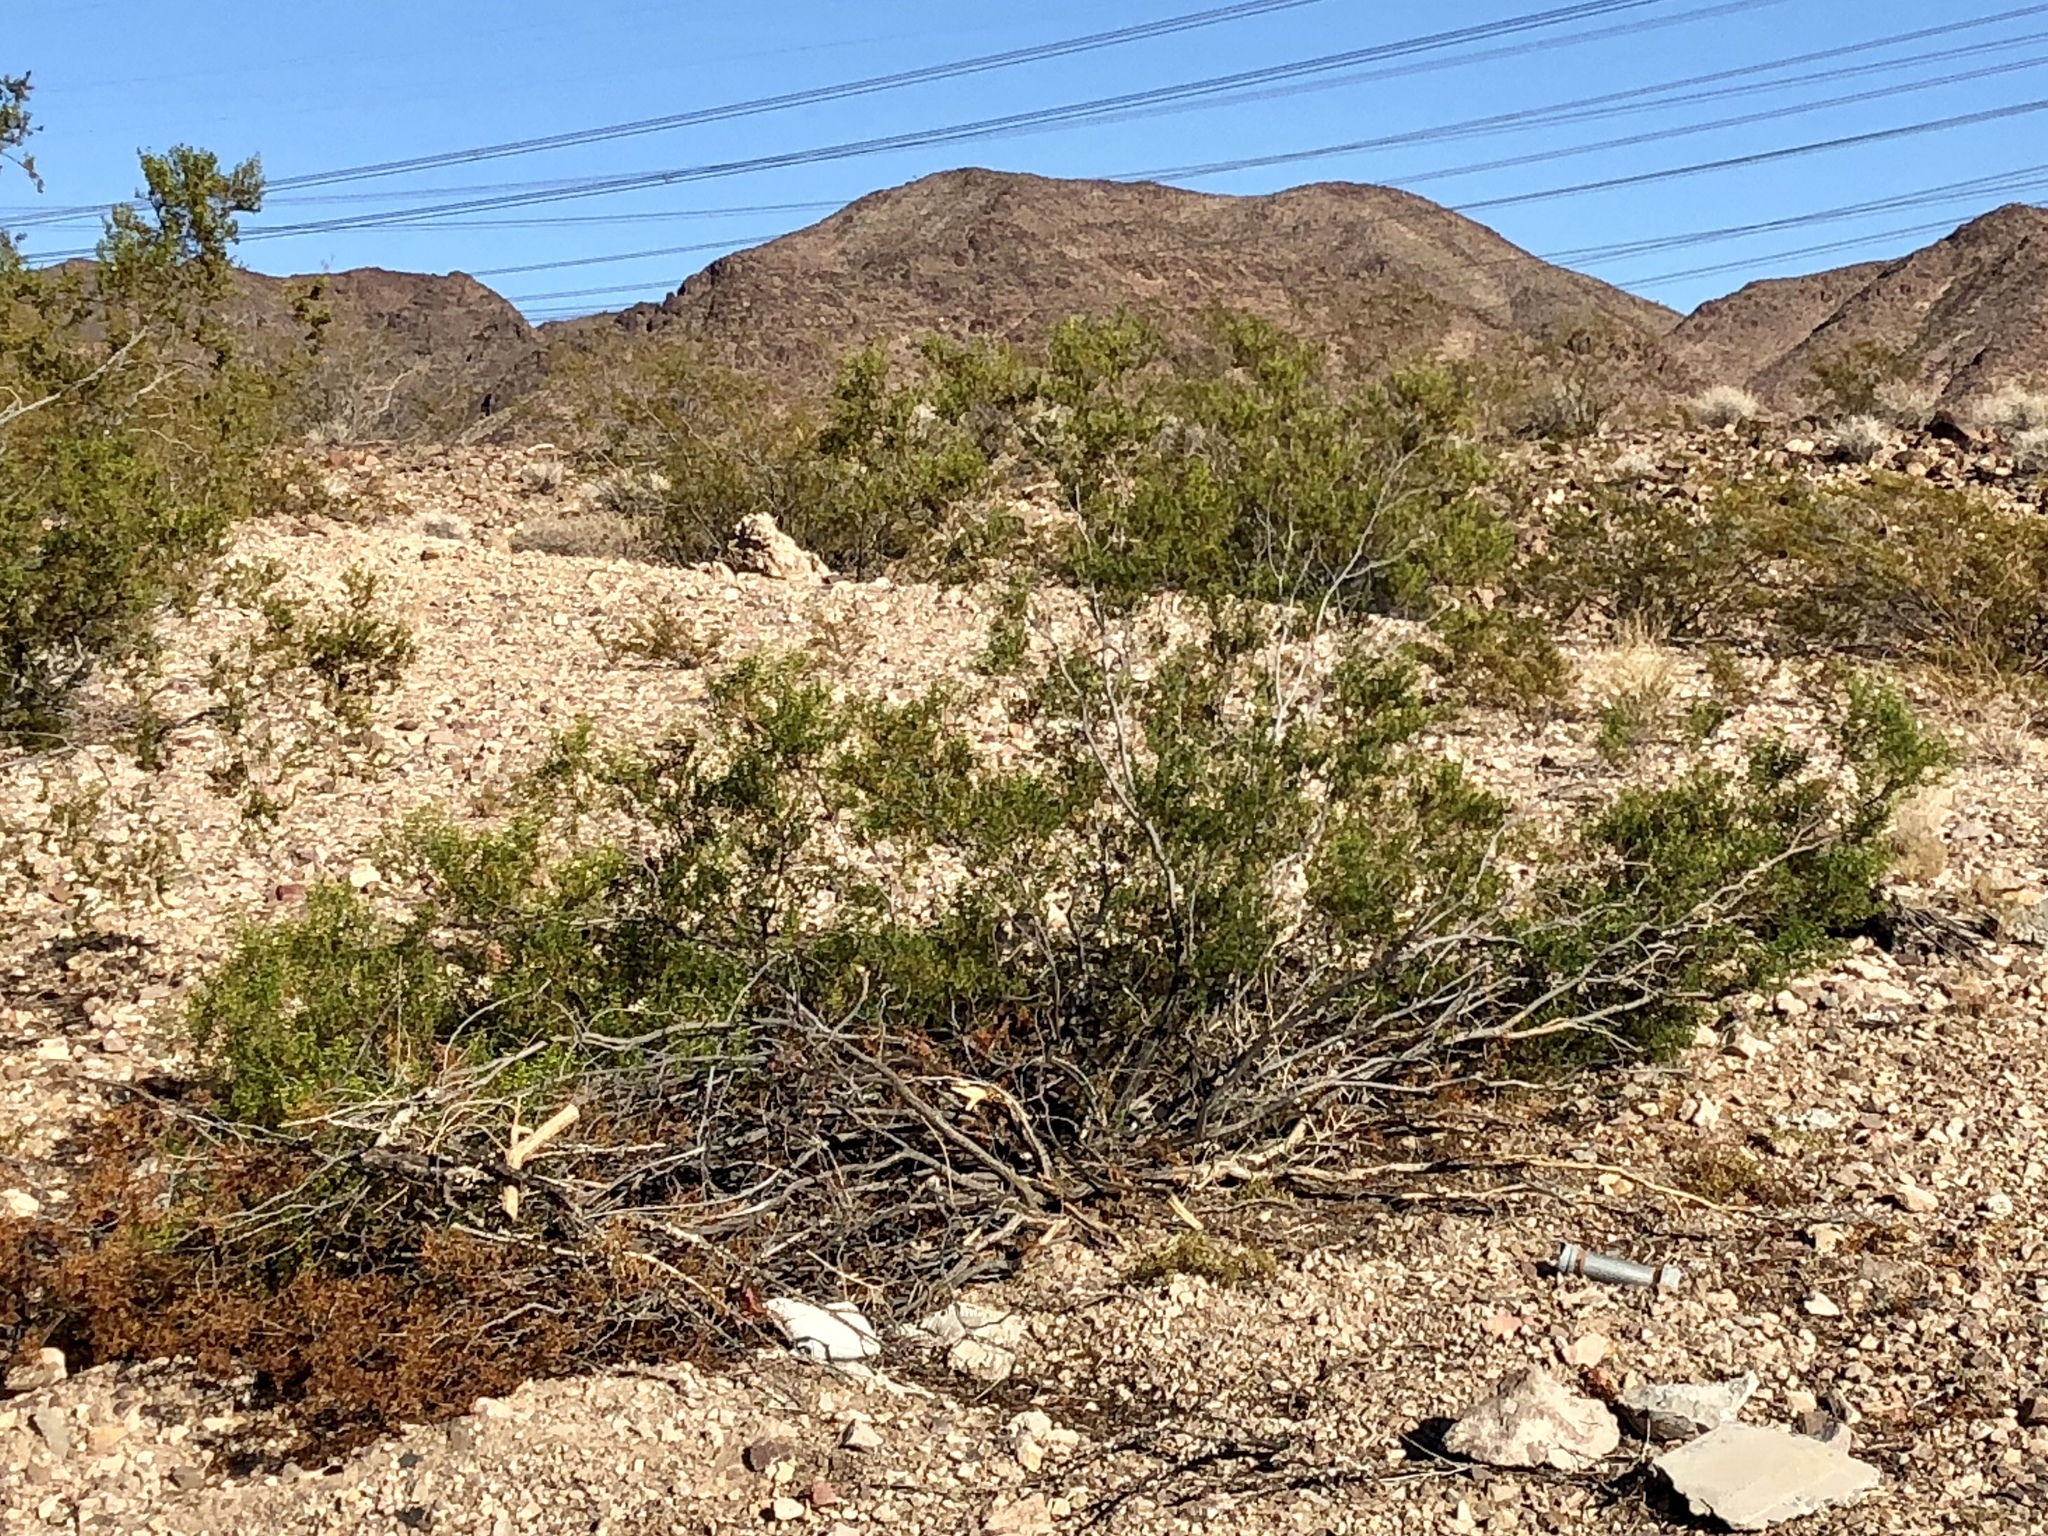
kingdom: Plantae
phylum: Tracheophyta
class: Magnoliopsida
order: Zygophyllales
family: Zygophyllaceae
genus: Larrea
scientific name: Larrea tridentata
